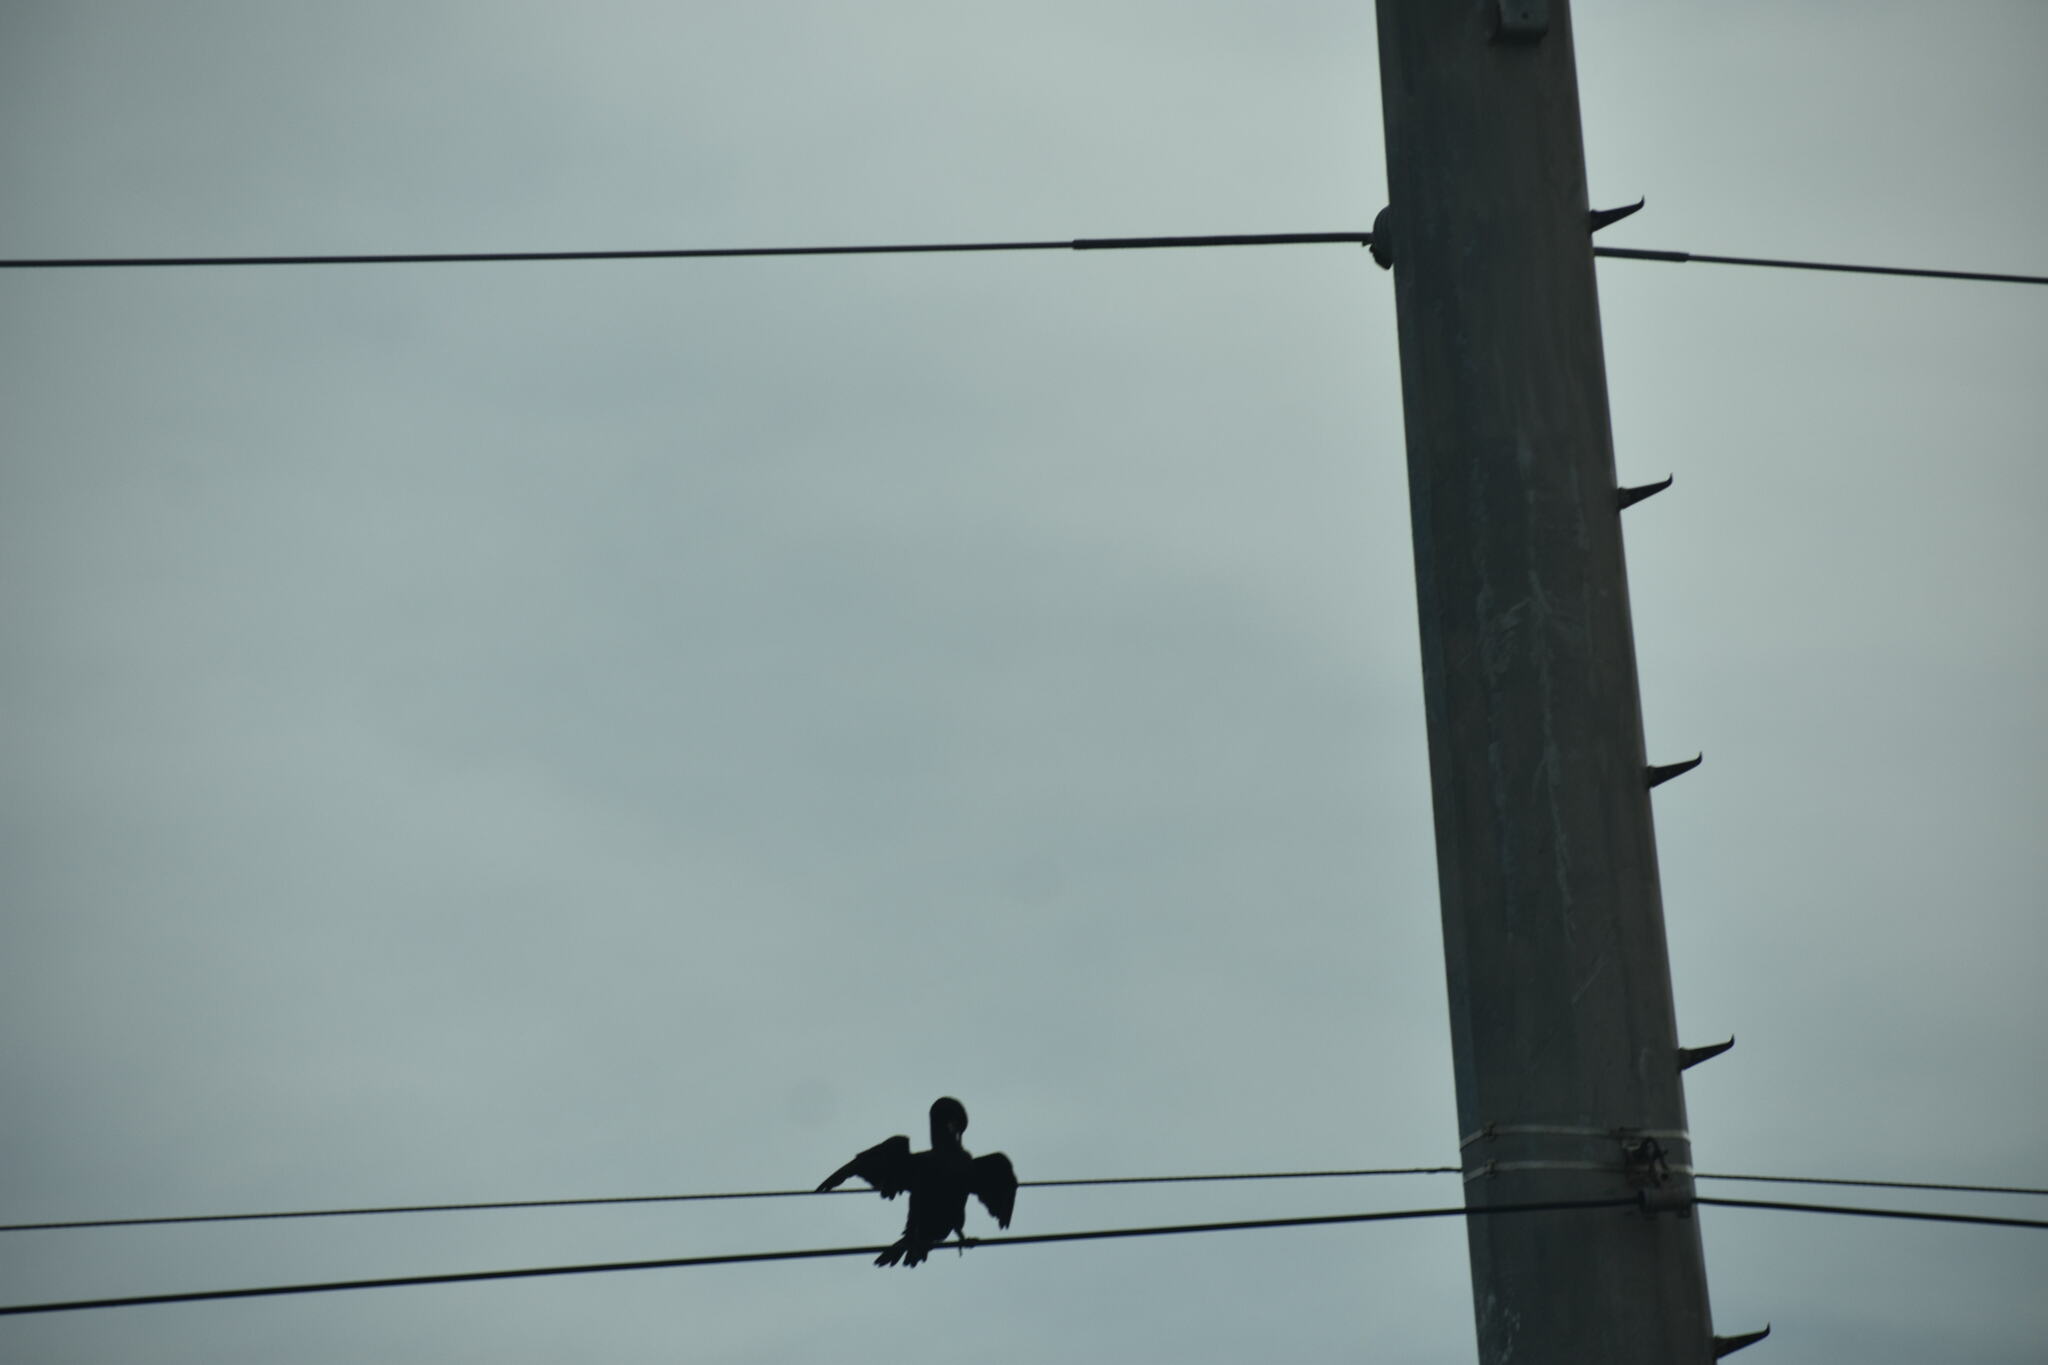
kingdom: Animalia
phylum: Chordata
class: Aves
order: Suliformes
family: Phalacrocoracidae
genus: Phalacrocorax
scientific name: Phalacrocorax auritus
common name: Double-crested cormorant
